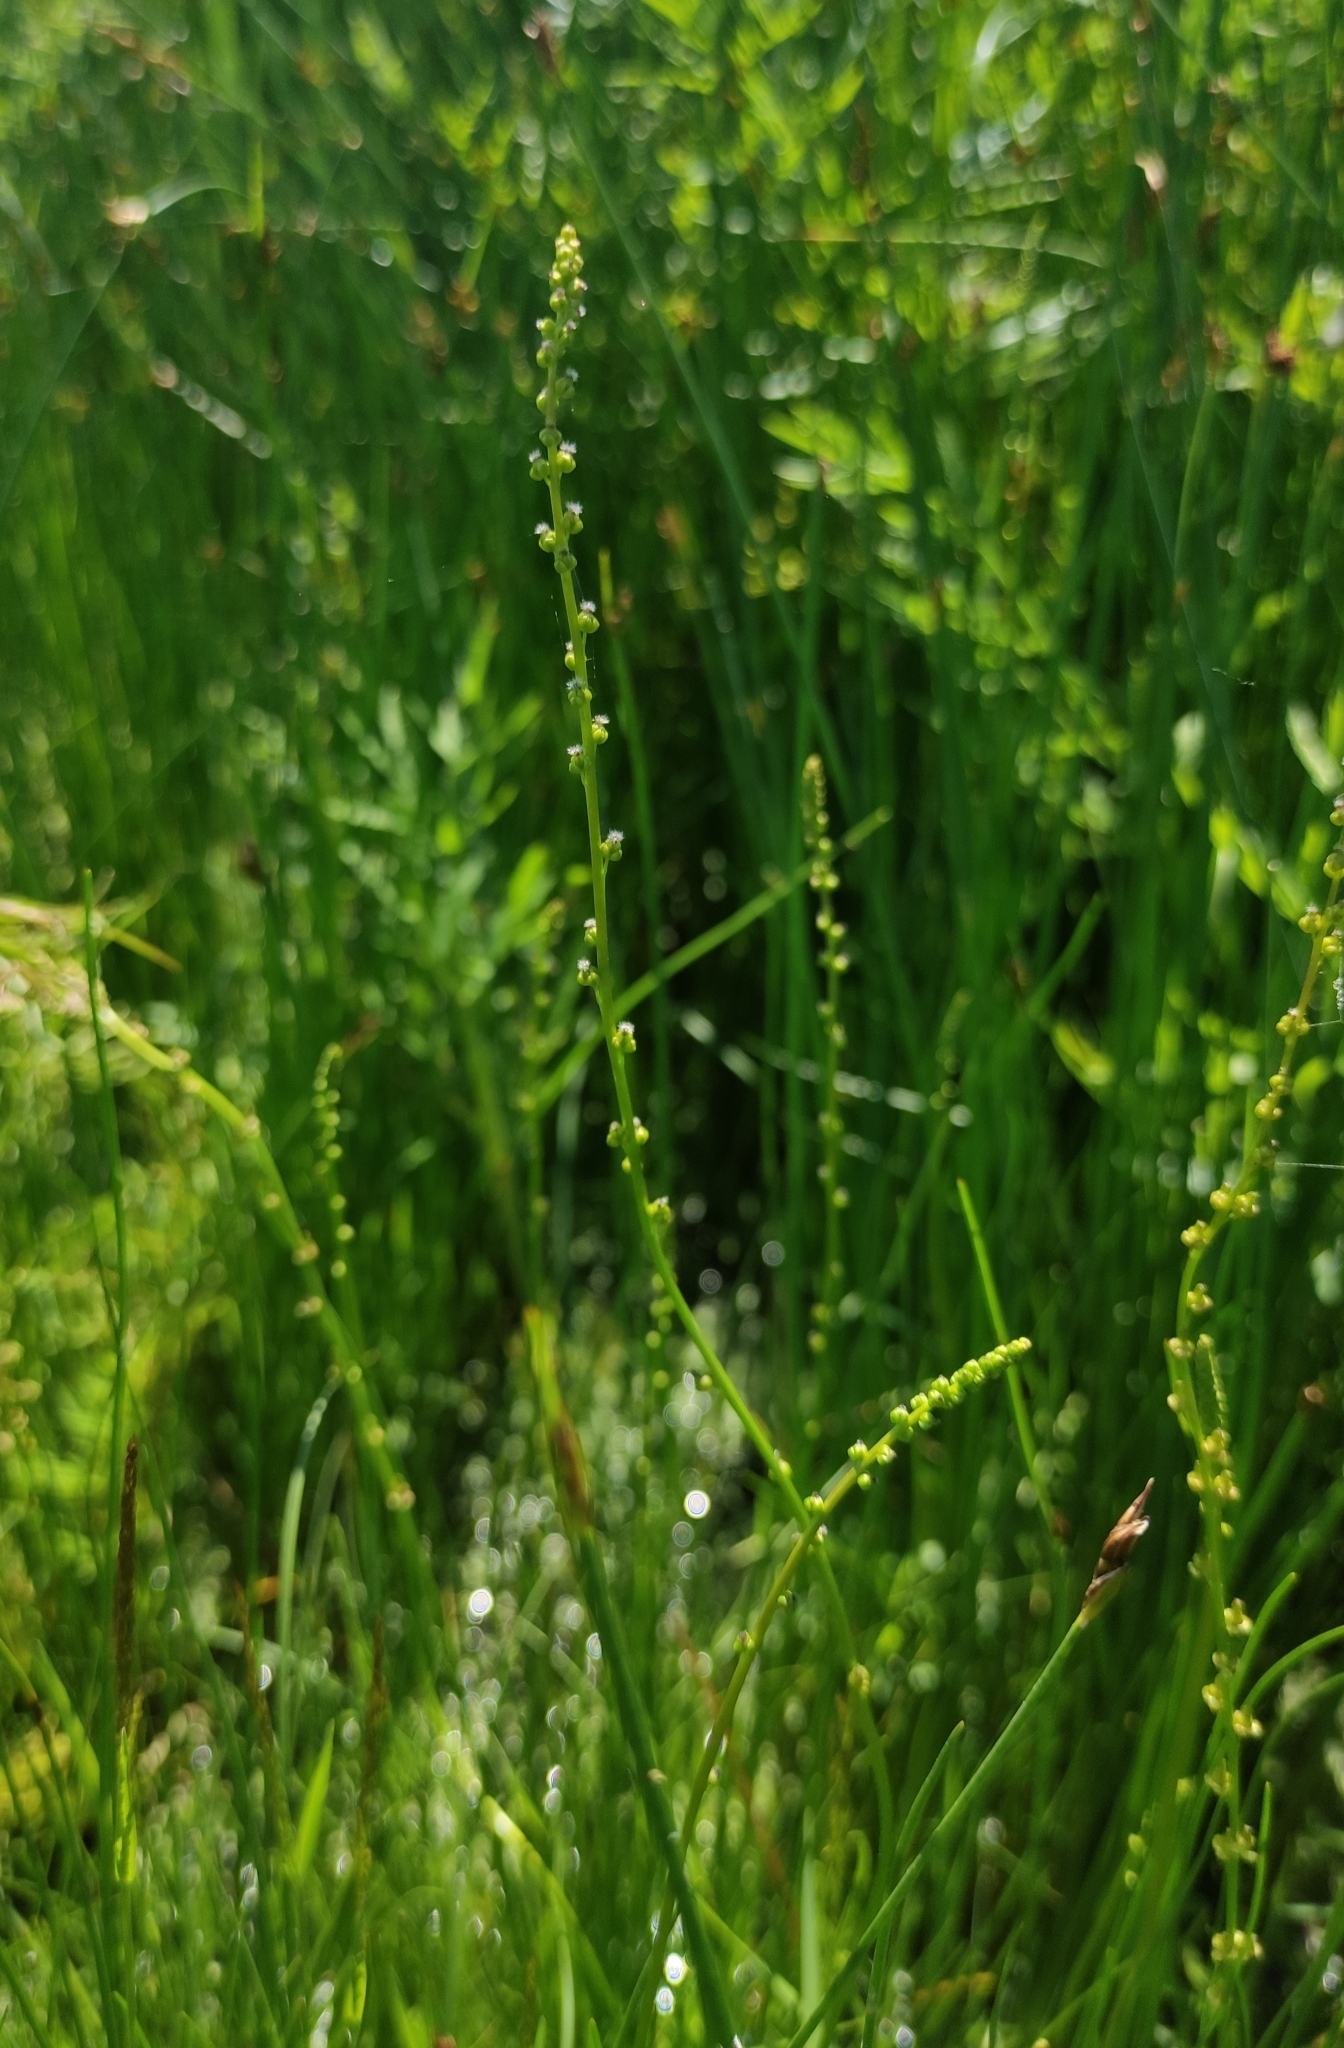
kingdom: Plantae
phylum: Tracheophyta
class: Liliopsida
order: Alismatales
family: Juncaginaceae
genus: Triglochin
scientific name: Triglochin palustris
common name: Marsh arrowgrass
